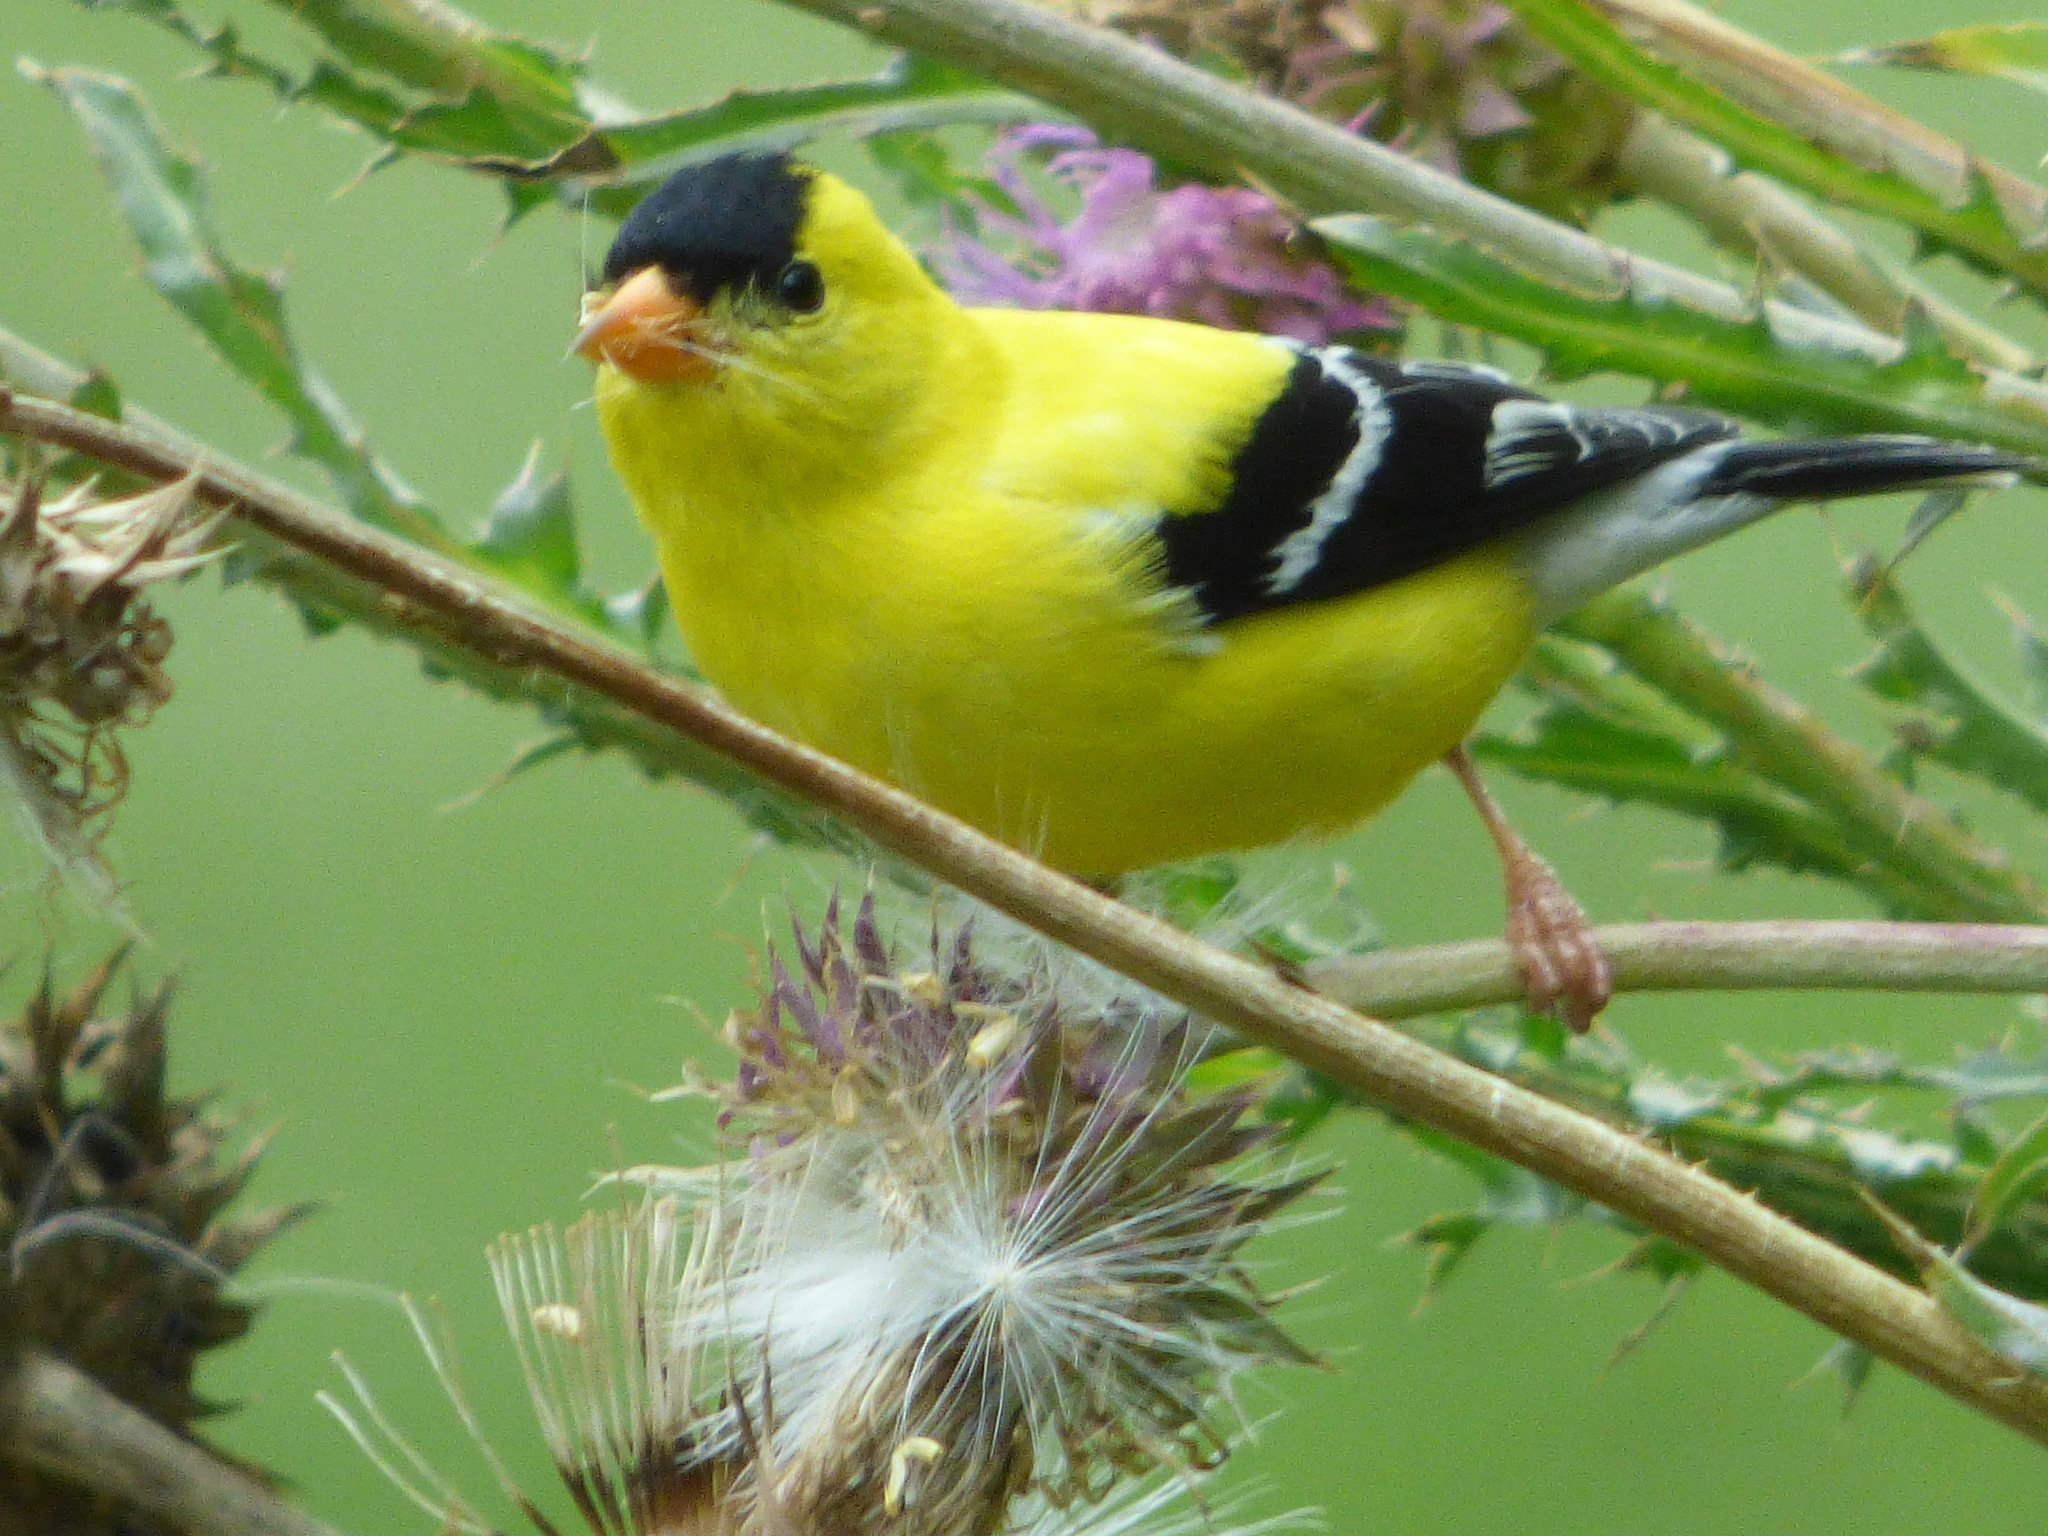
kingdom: Animalia
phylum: Chordata
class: Aves
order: Passeriformes
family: Fringillidae
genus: Spinus
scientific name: Spinus tristis
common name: American goldfinch
